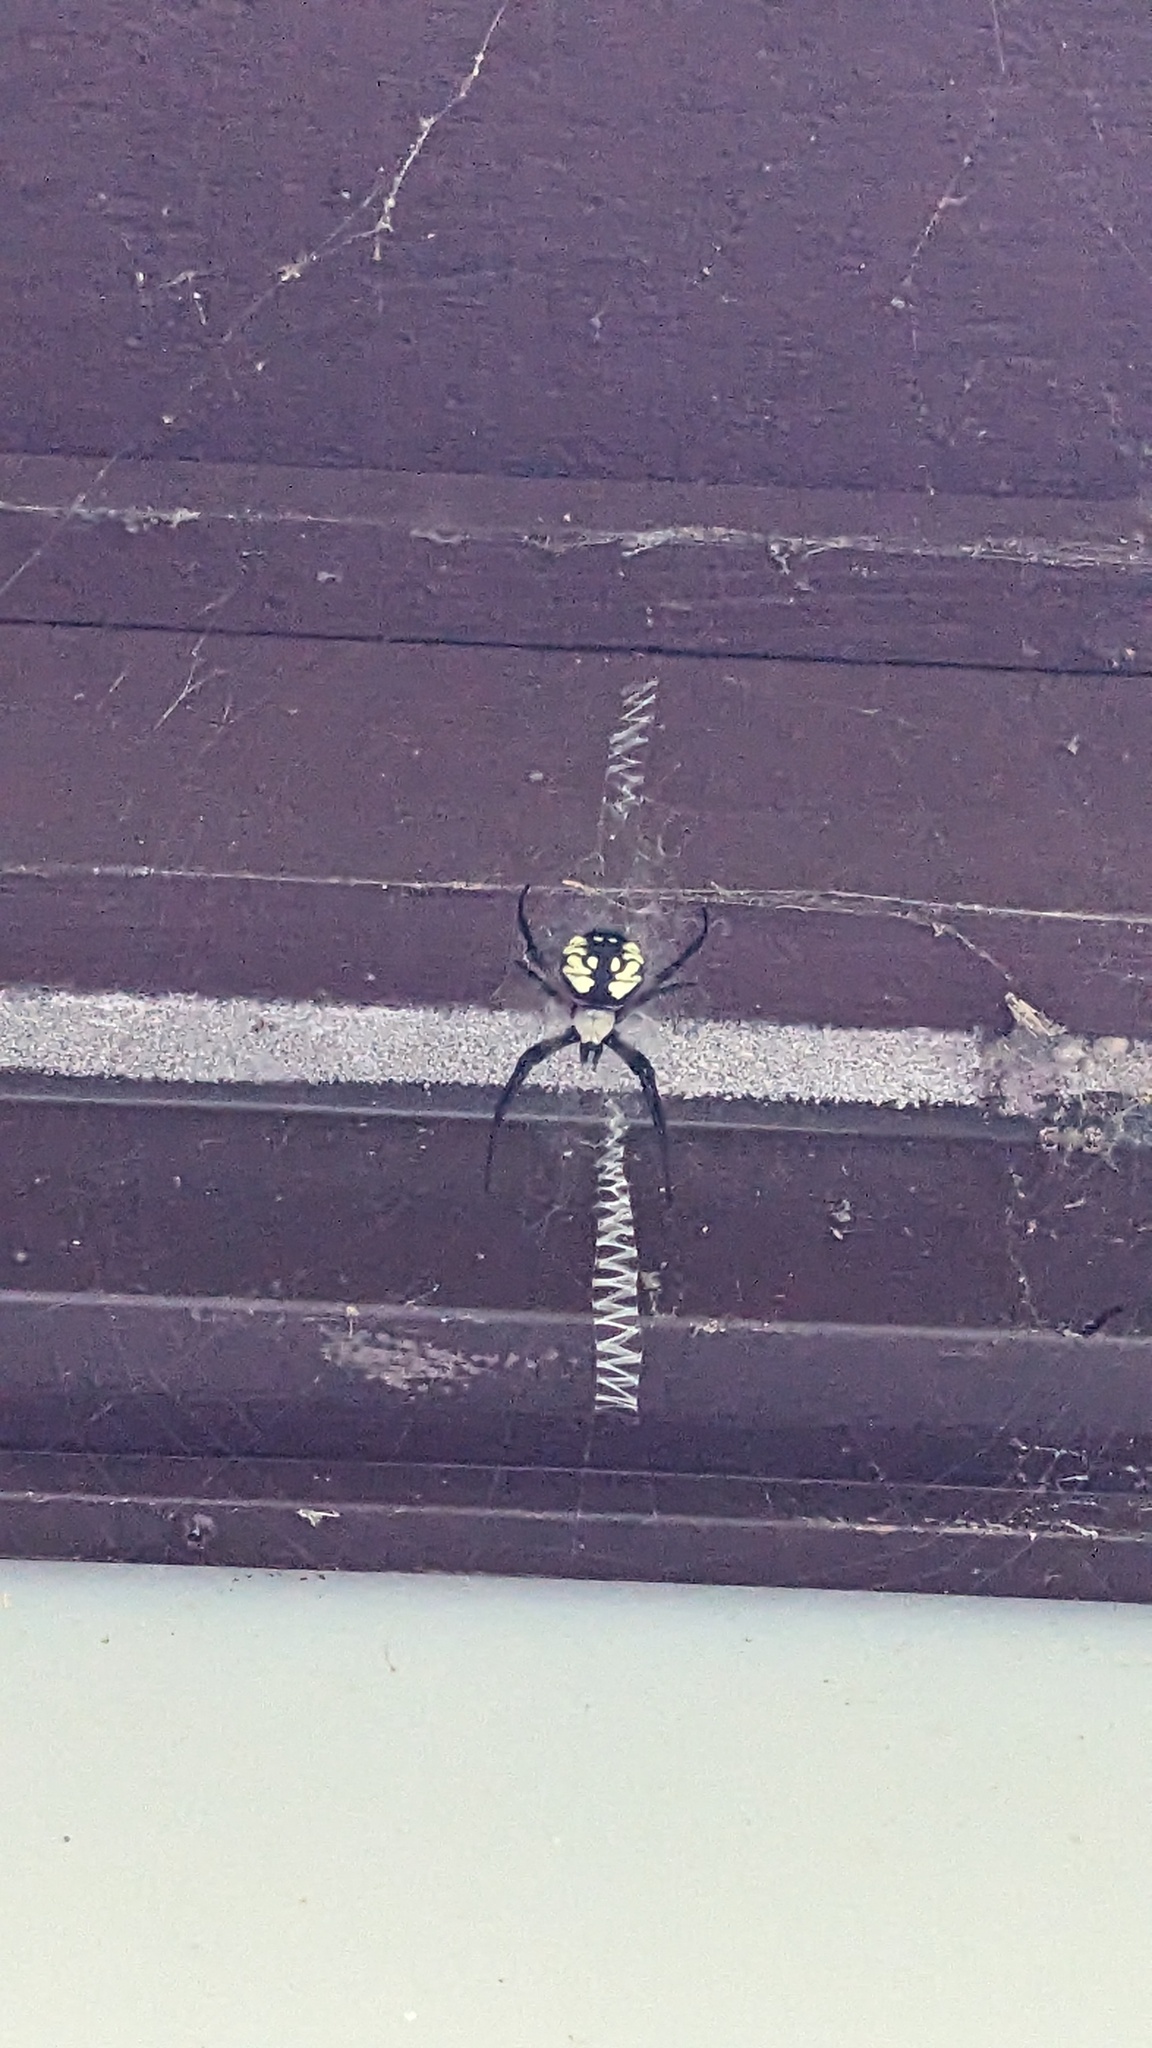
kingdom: Animalia
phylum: Arthropoda
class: Arachnida
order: Araneae
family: Araneidae
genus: Argiope
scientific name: Argiope aurantia
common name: Orb weavers
